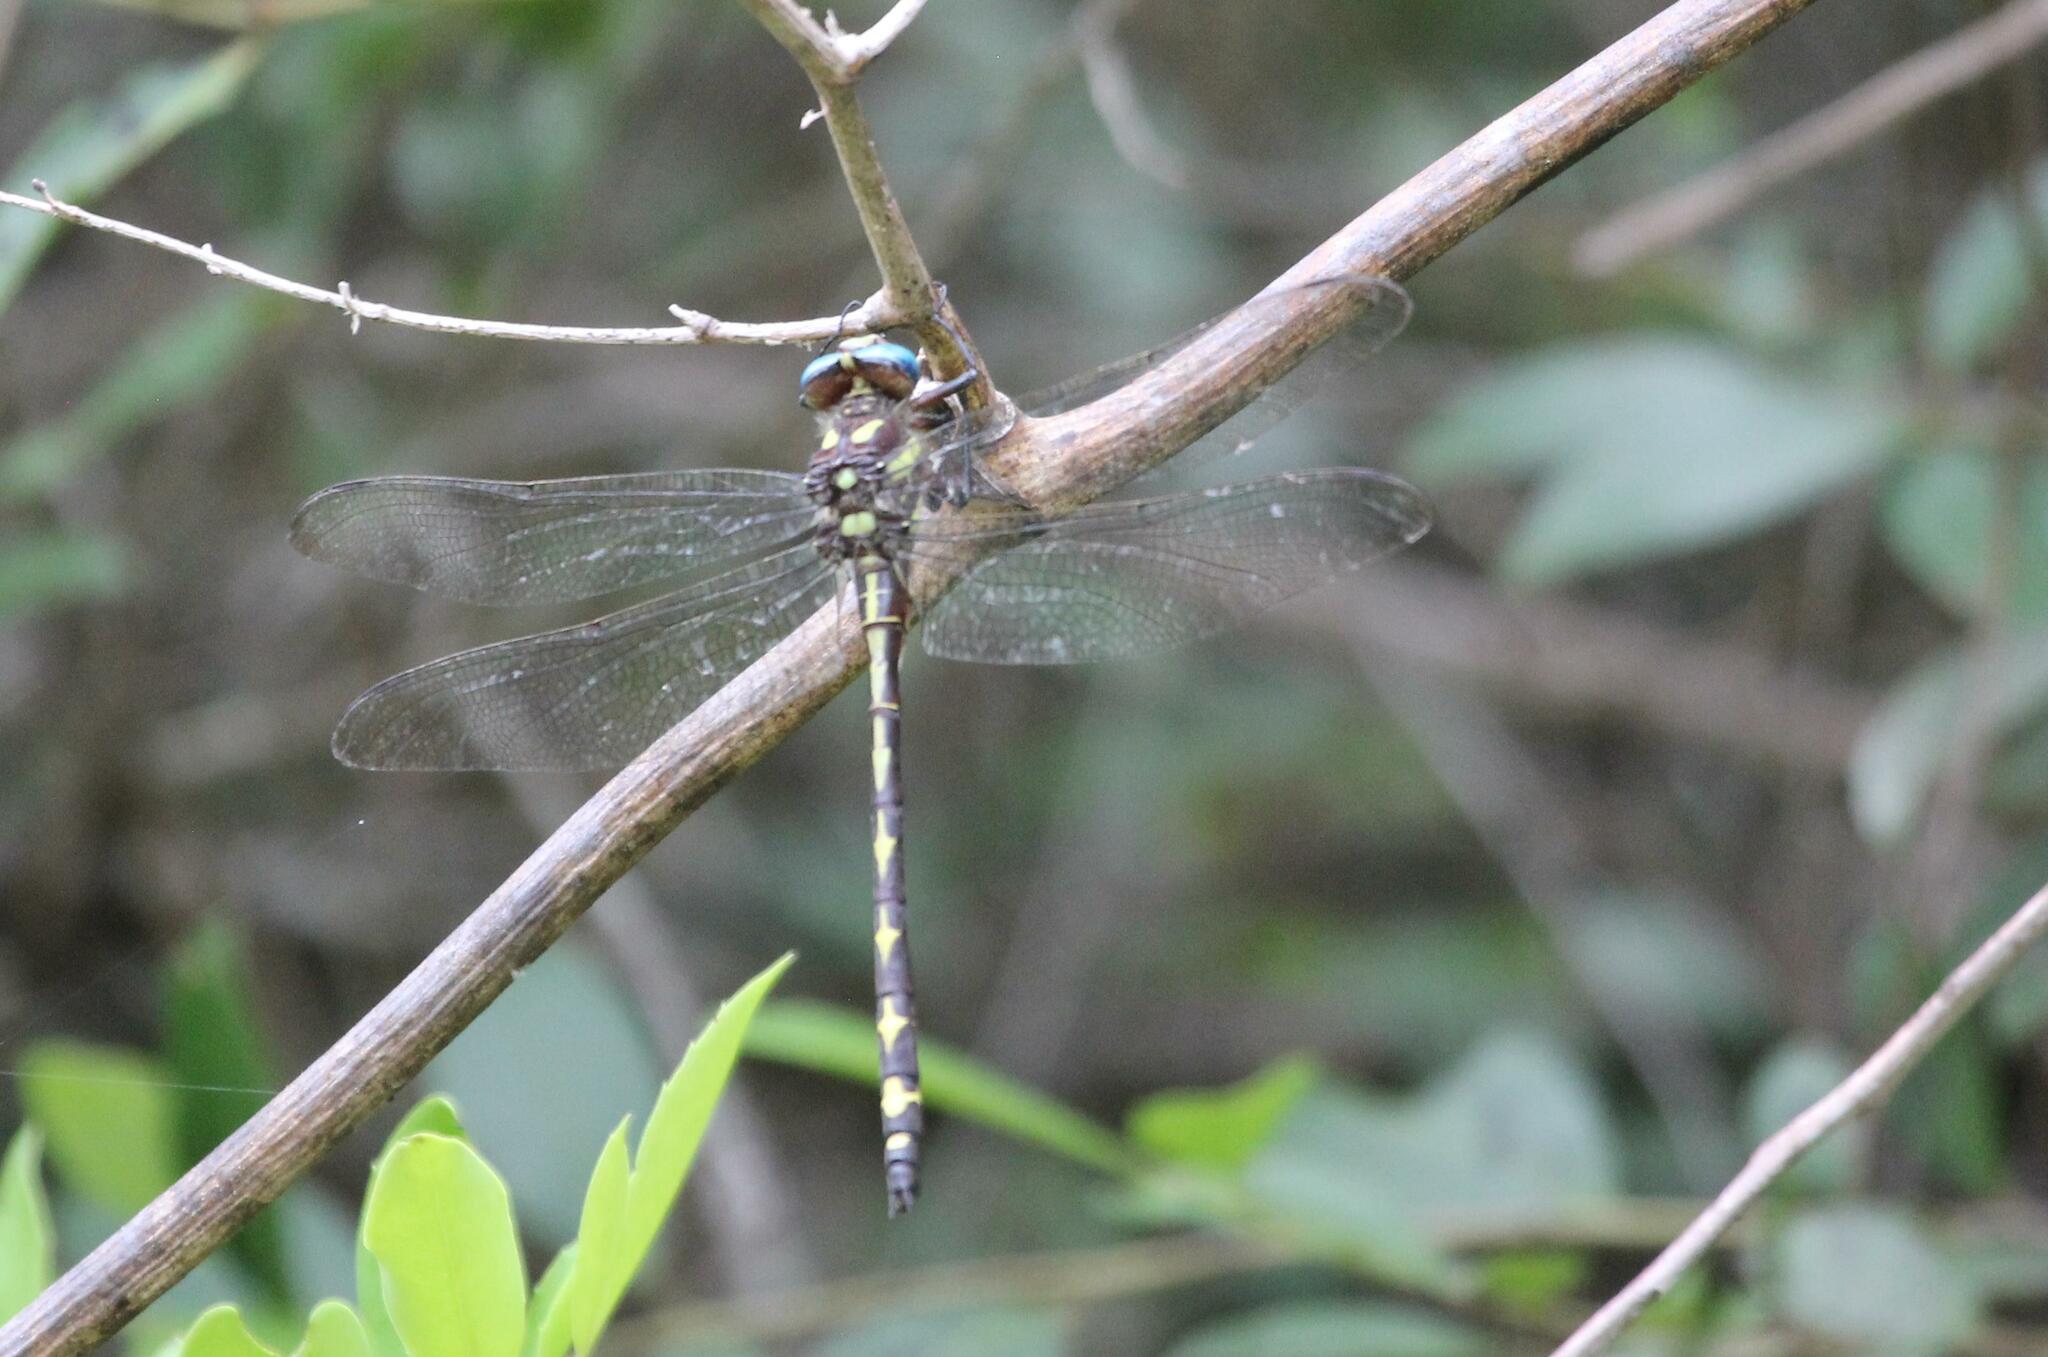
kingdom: Animalia
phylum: Arthropoda
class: Insecta
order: Odonata
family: Cordulegastridae
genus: Cordulegaster
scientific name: Cordulegaster obliqua
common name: Arrowhead spiketail
